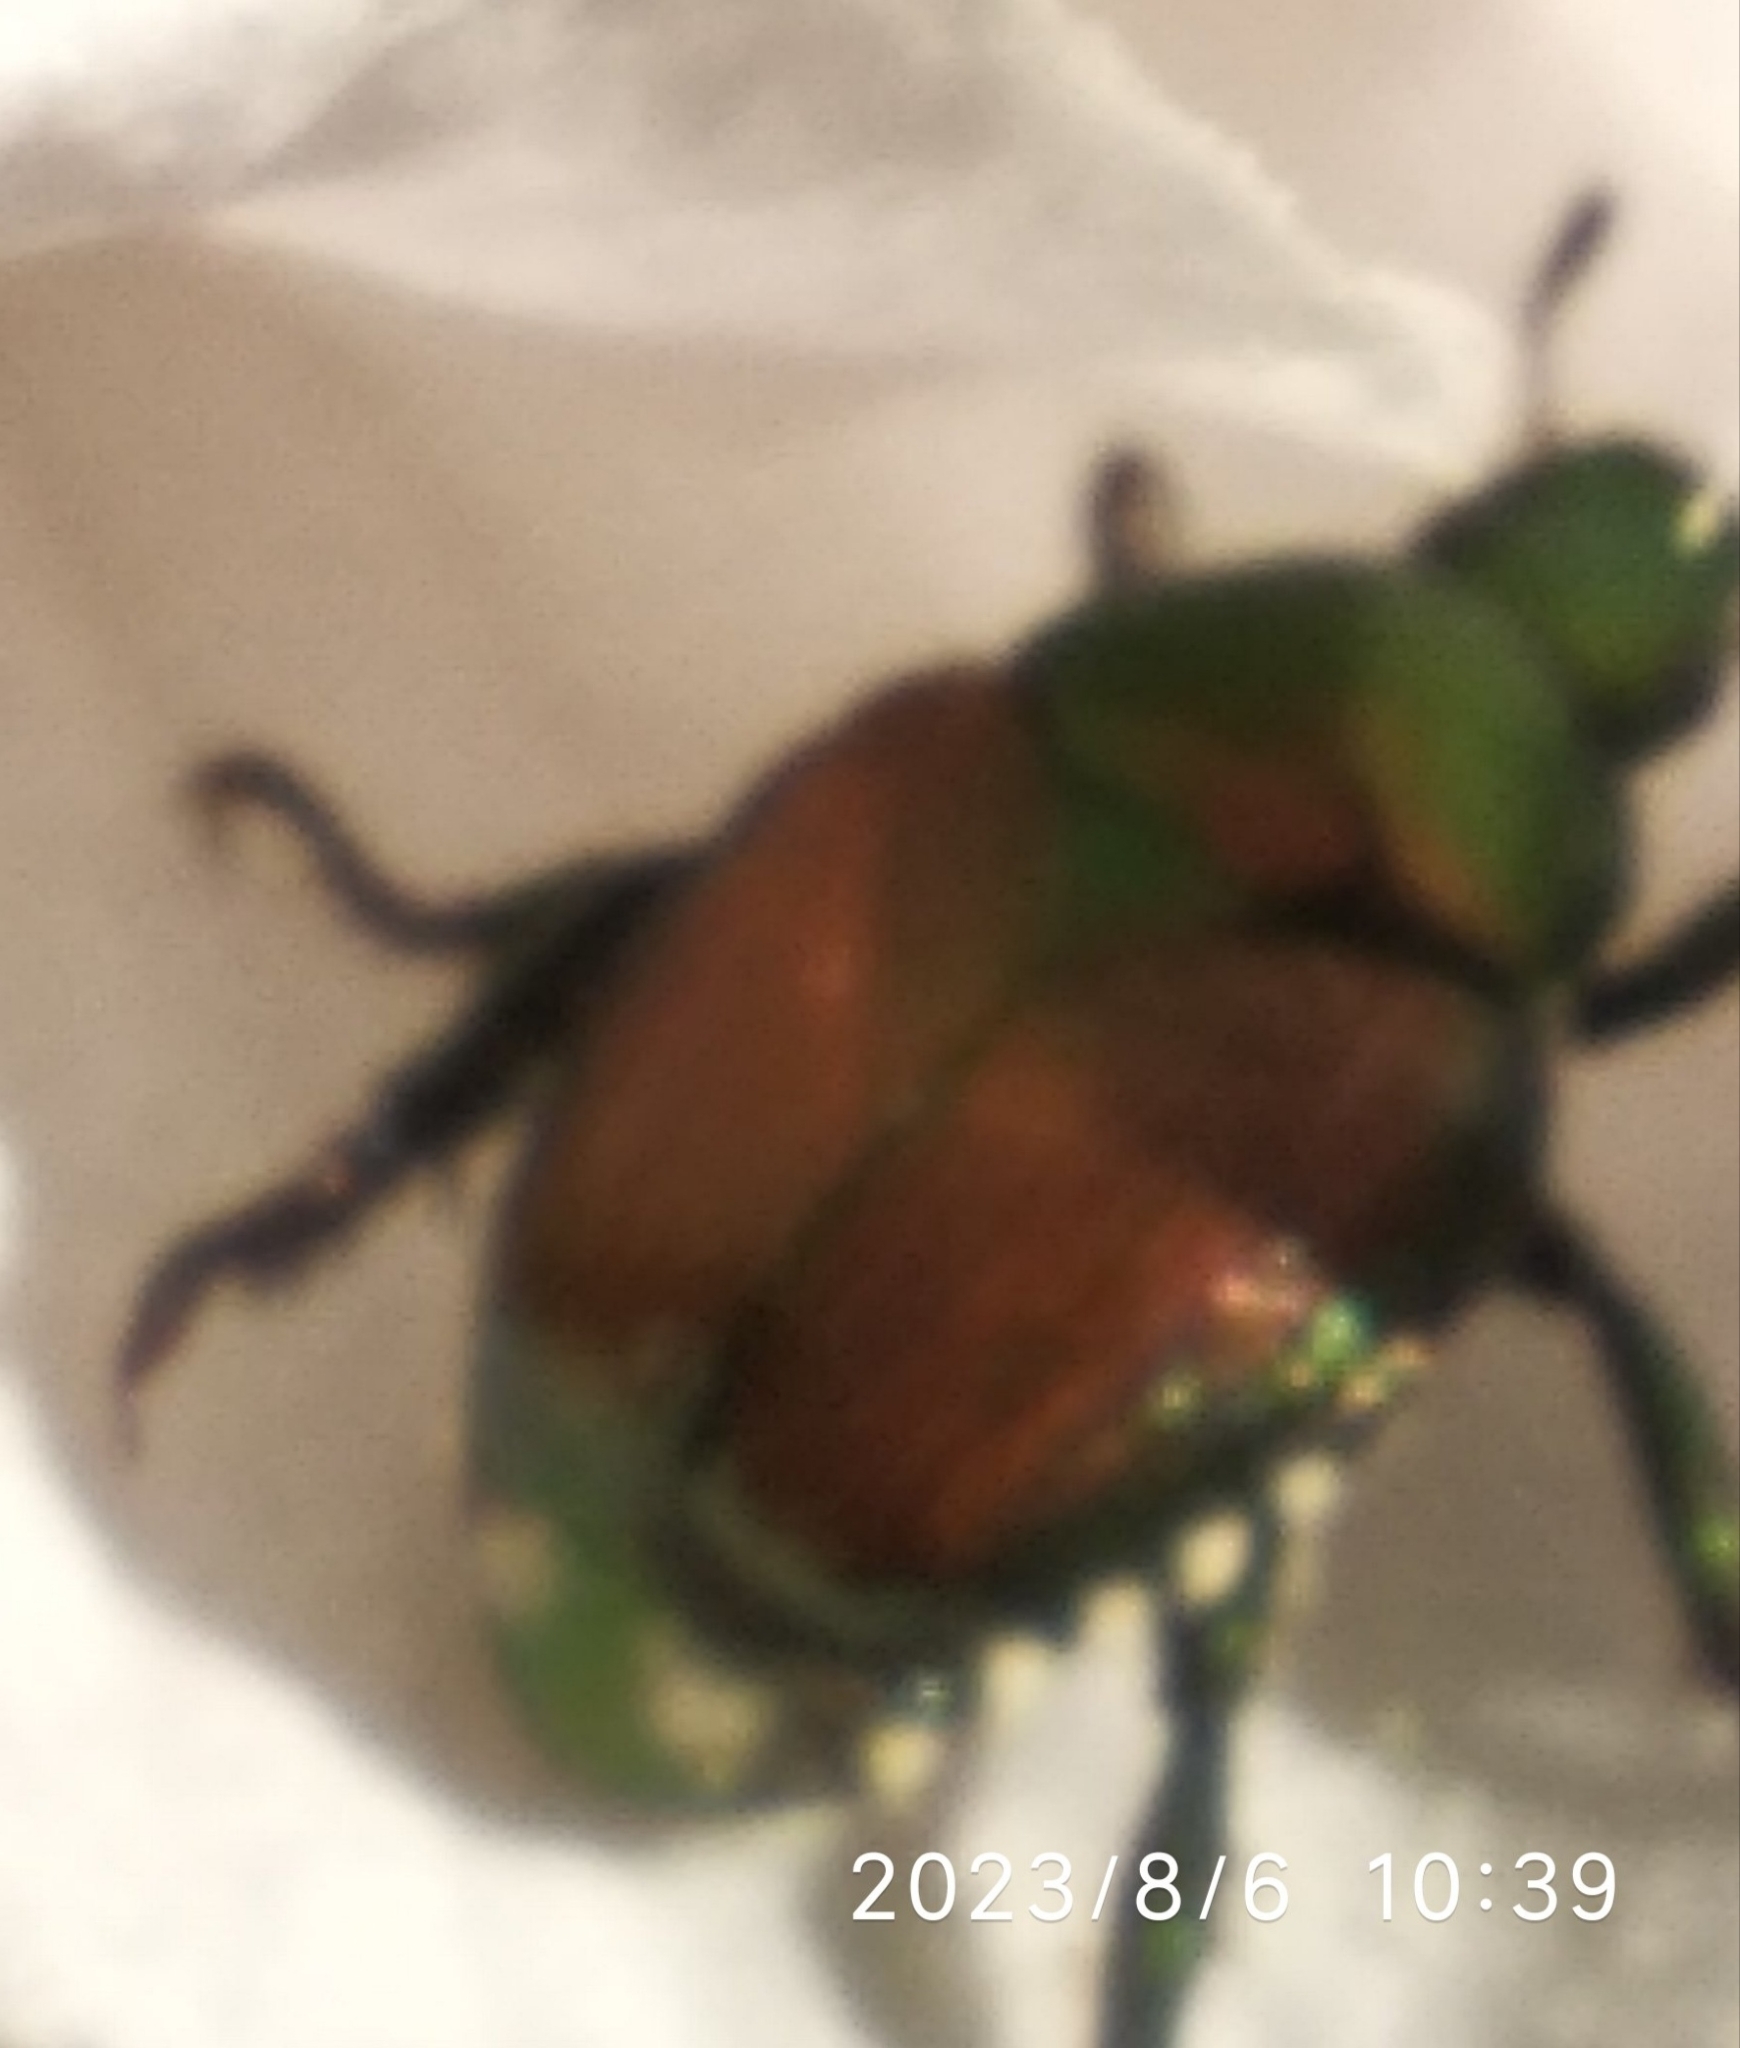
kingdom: Animalia
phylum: Arthropoda
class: Insecta
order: Coleoptera
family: Scarabaeidae
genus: Popillia
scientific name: Popillia japonica
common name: Japanese beetle
